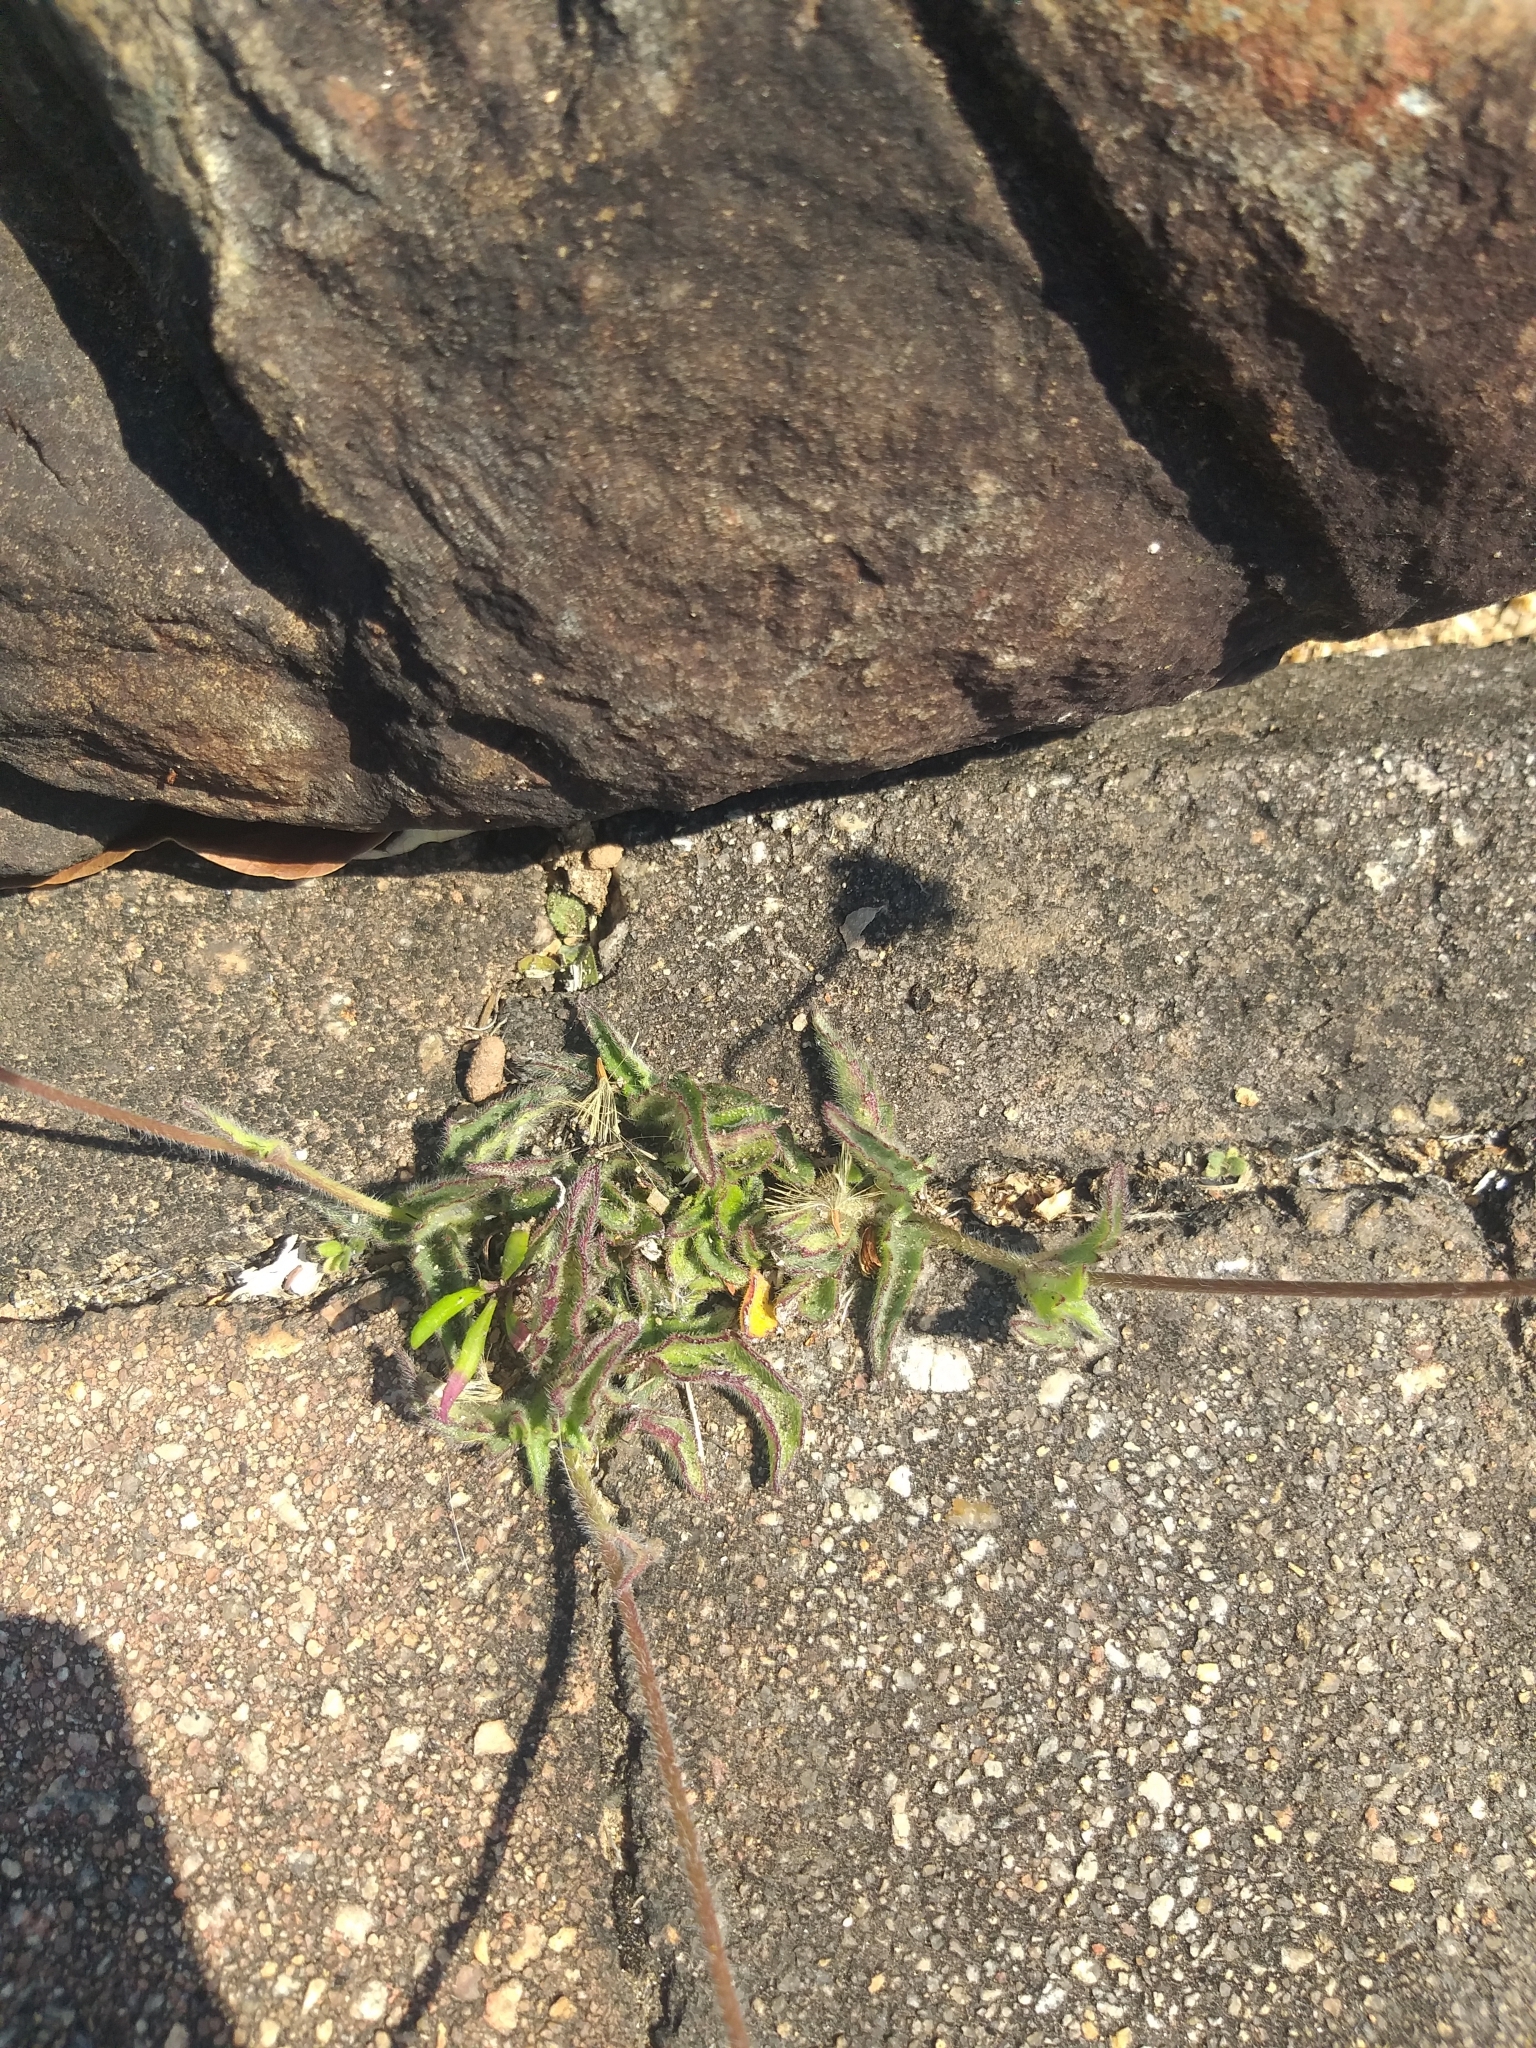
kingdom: Plantae
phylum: Tracheophyta
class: Magnoliopsida
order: Asterales
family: Asteraceae
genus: Tridax
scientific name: Tridax procumbens
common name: Coatbuttons
